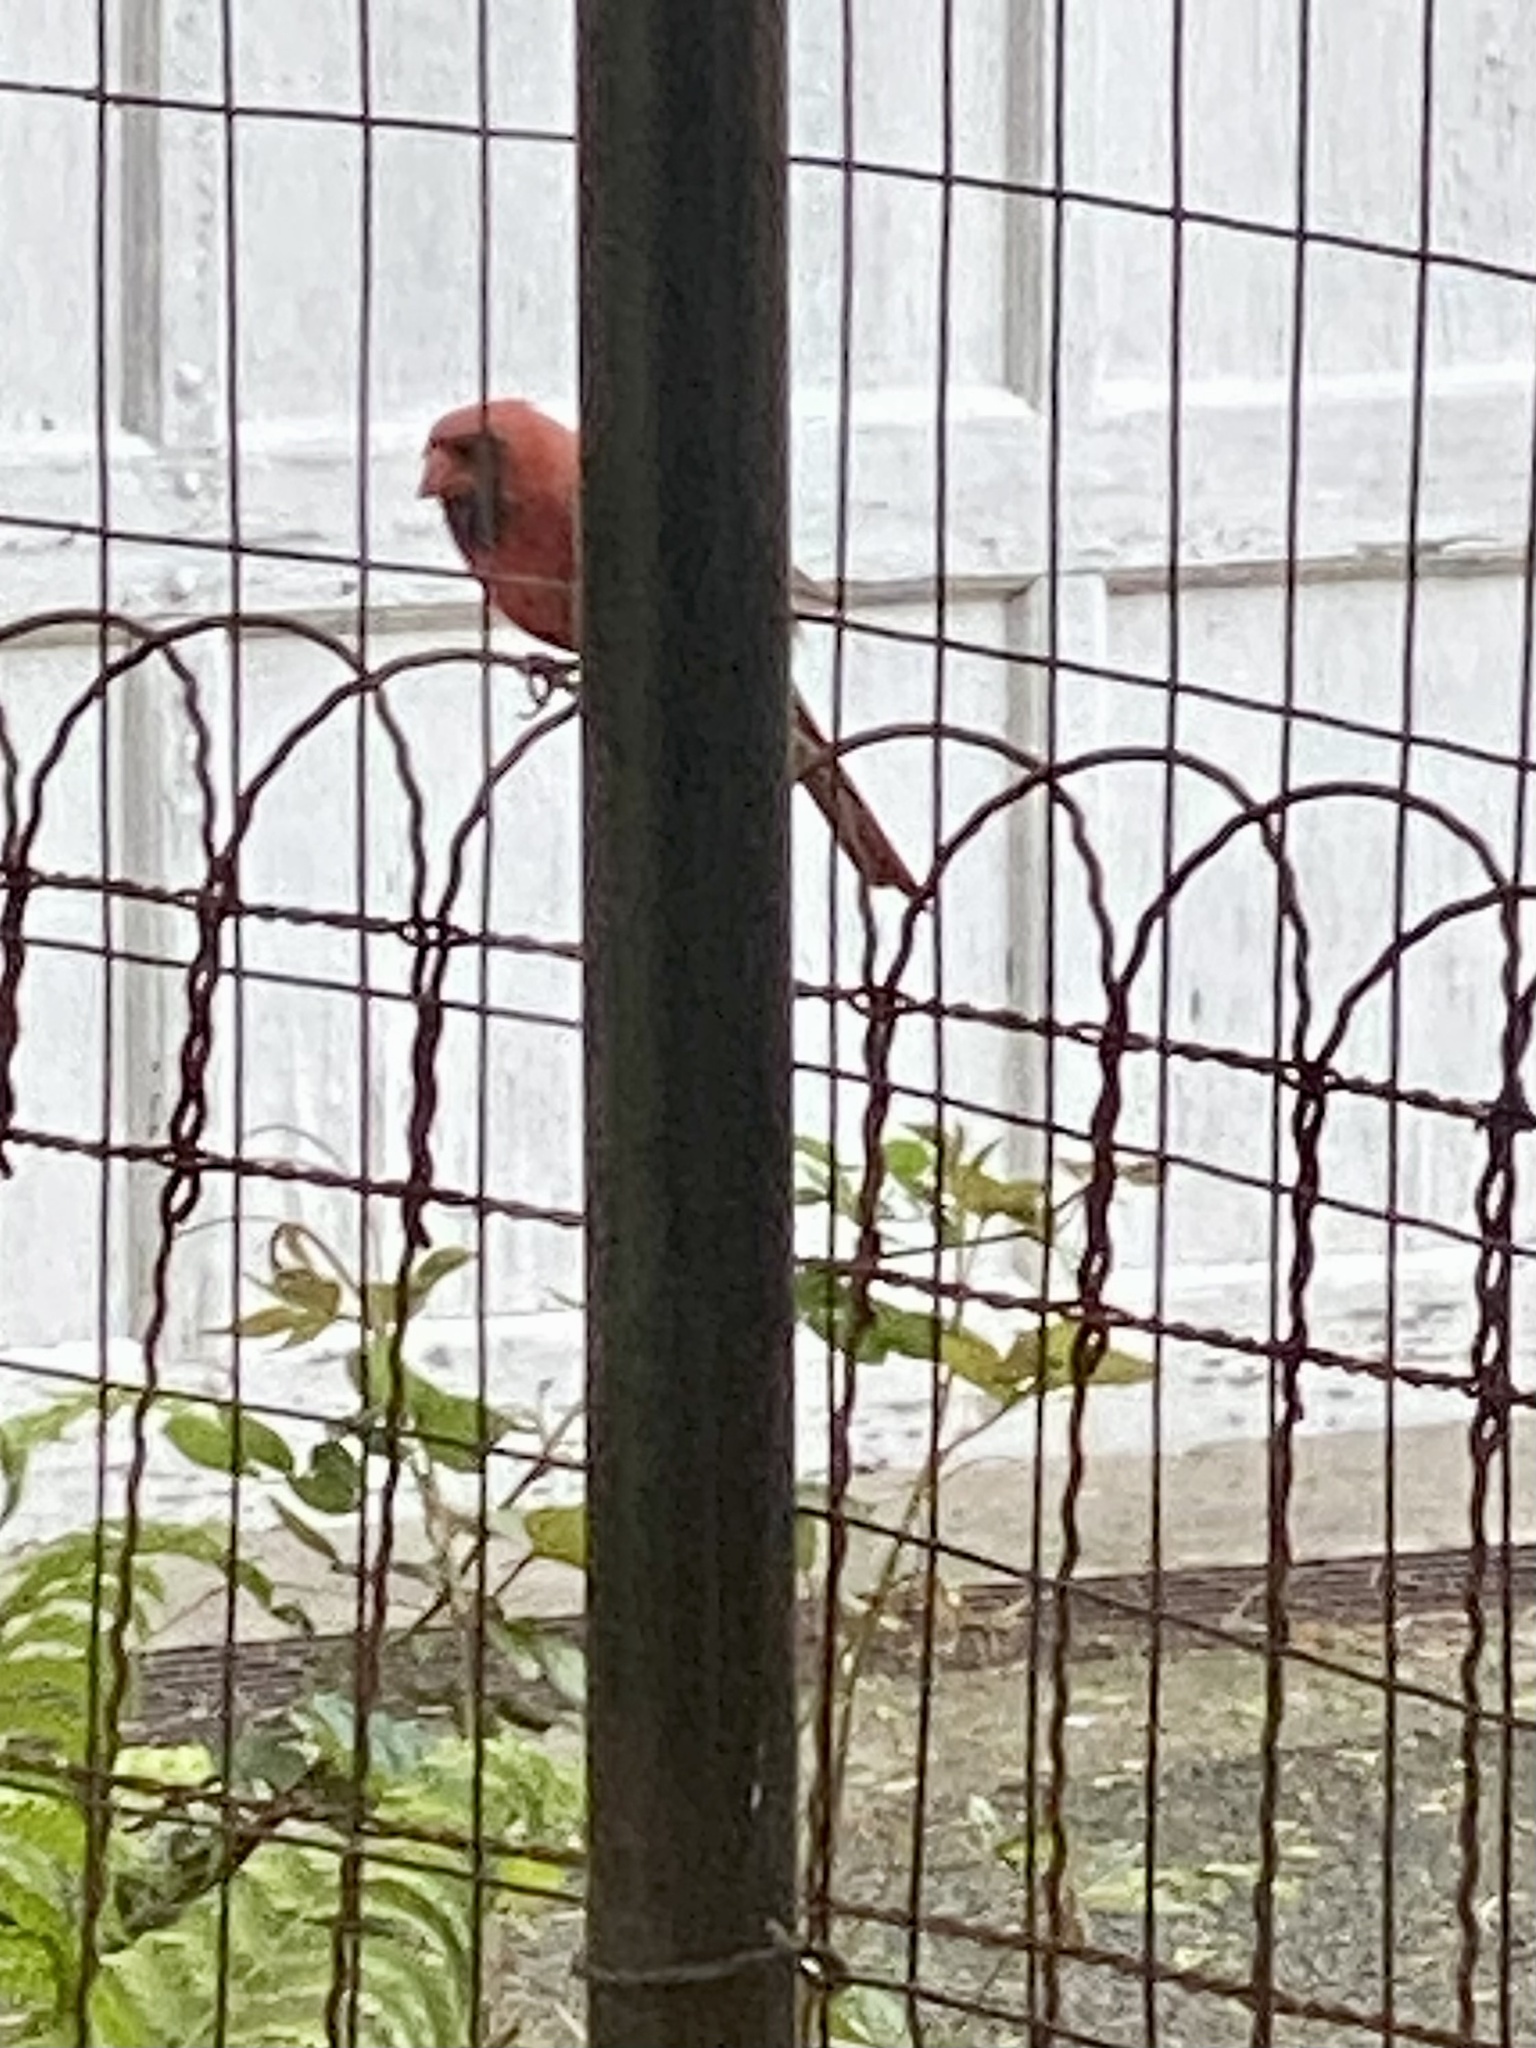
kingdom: Animalia
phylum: Chordata
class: Aves
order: Passeriformes
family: Cardinalidae
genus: Cardinalis
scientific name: Cardinalis cardinalis
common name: Northern cardinal
